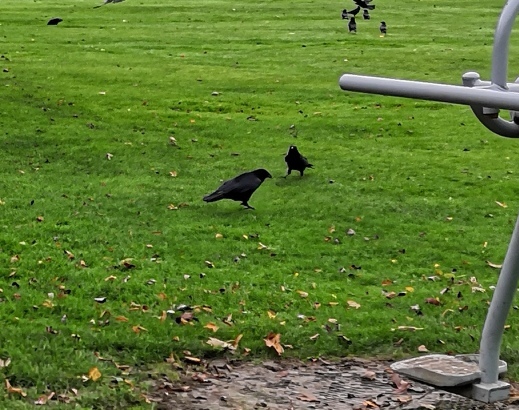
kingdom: Animalia
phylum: Chordata
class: Aves
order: Passeriformes
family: Corvidae
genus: Corvus
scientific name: Corvus corone
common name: Carrion crow
